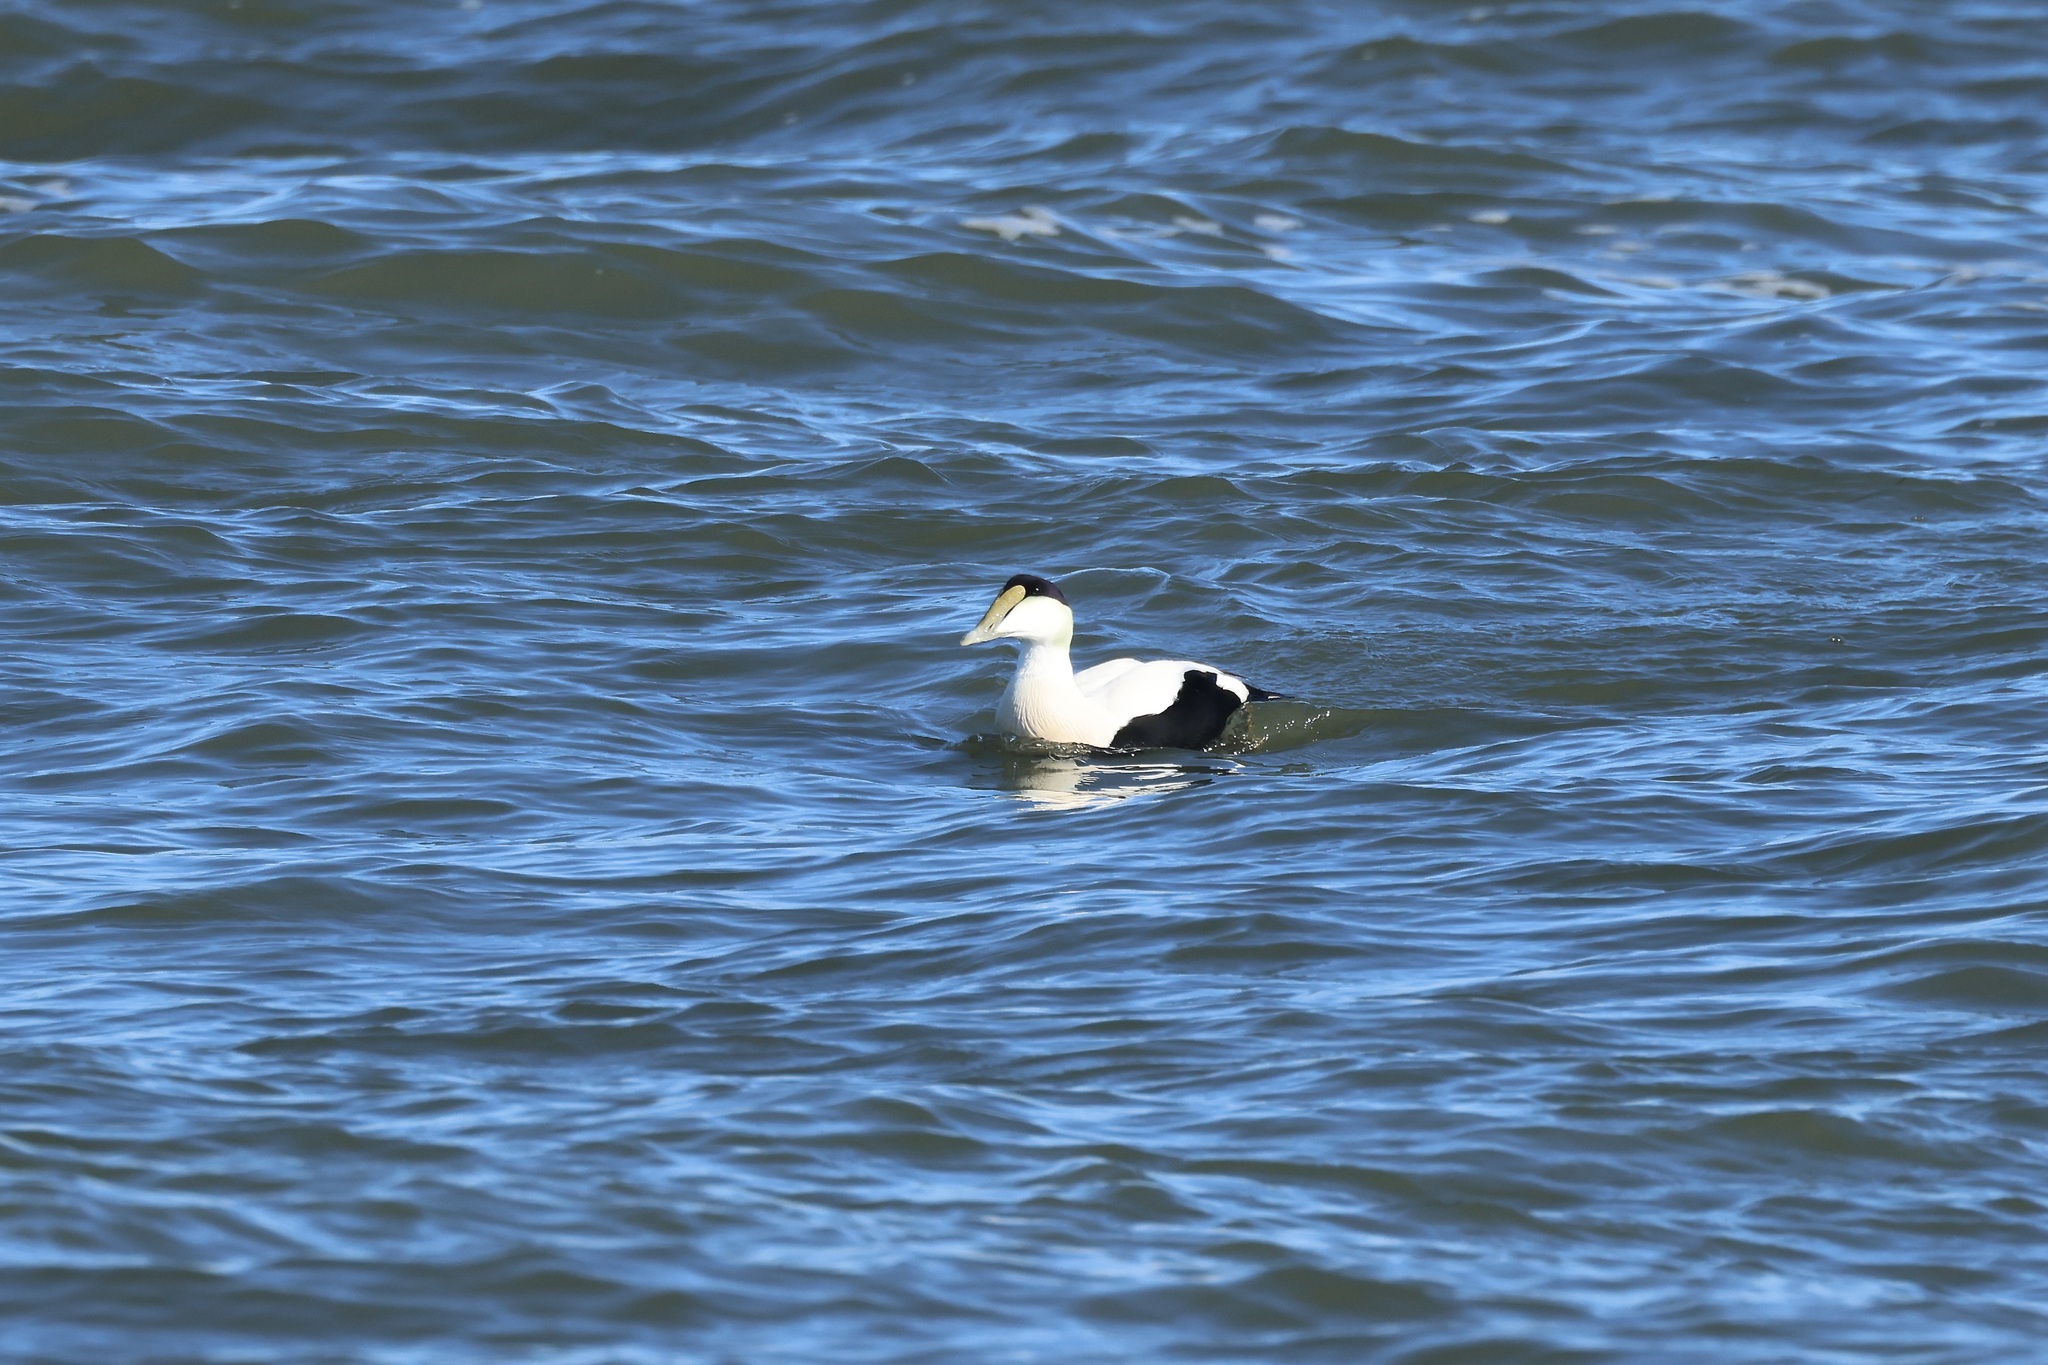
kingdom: Animalia
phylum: Chordata
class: Aves
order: Anseriformes
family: Anatidae
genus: Somateria
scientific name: Somateria mollissima
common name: Common eider
